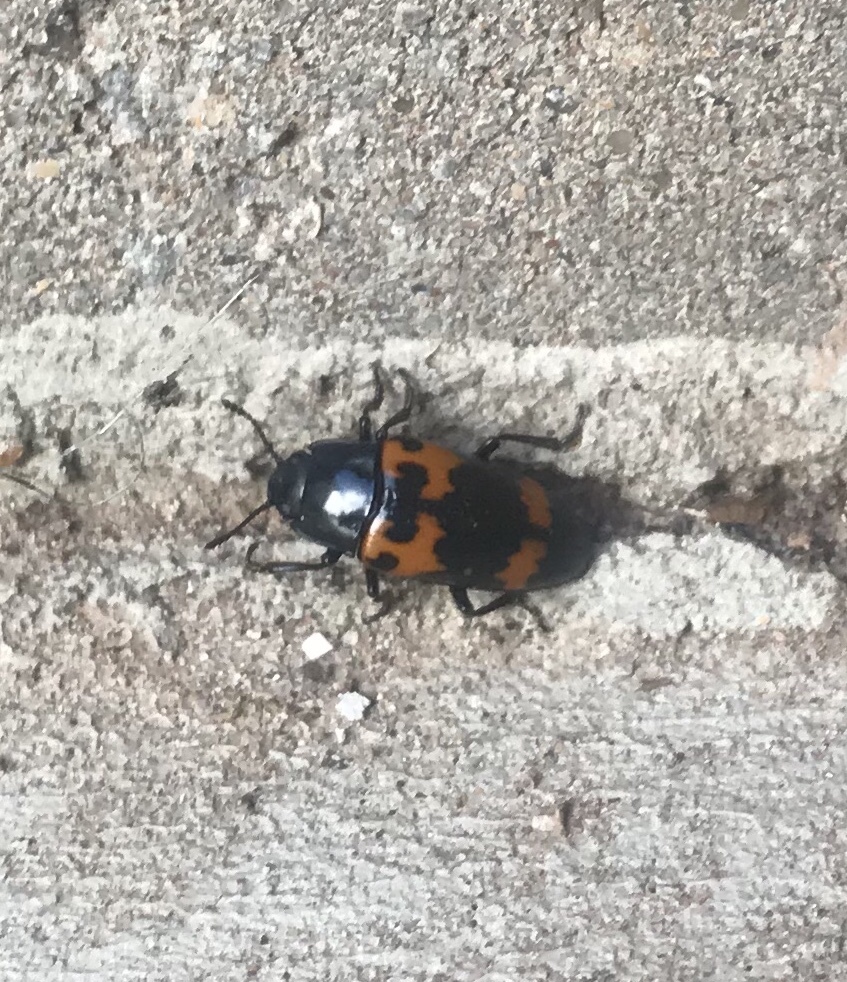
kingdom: Animalia
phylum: Arthropoda
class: Insecta
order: Coleoptera
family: Erotylidae
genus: Megalodacne
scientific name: Megalodacne heros
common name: Pleasing fungus beetle
